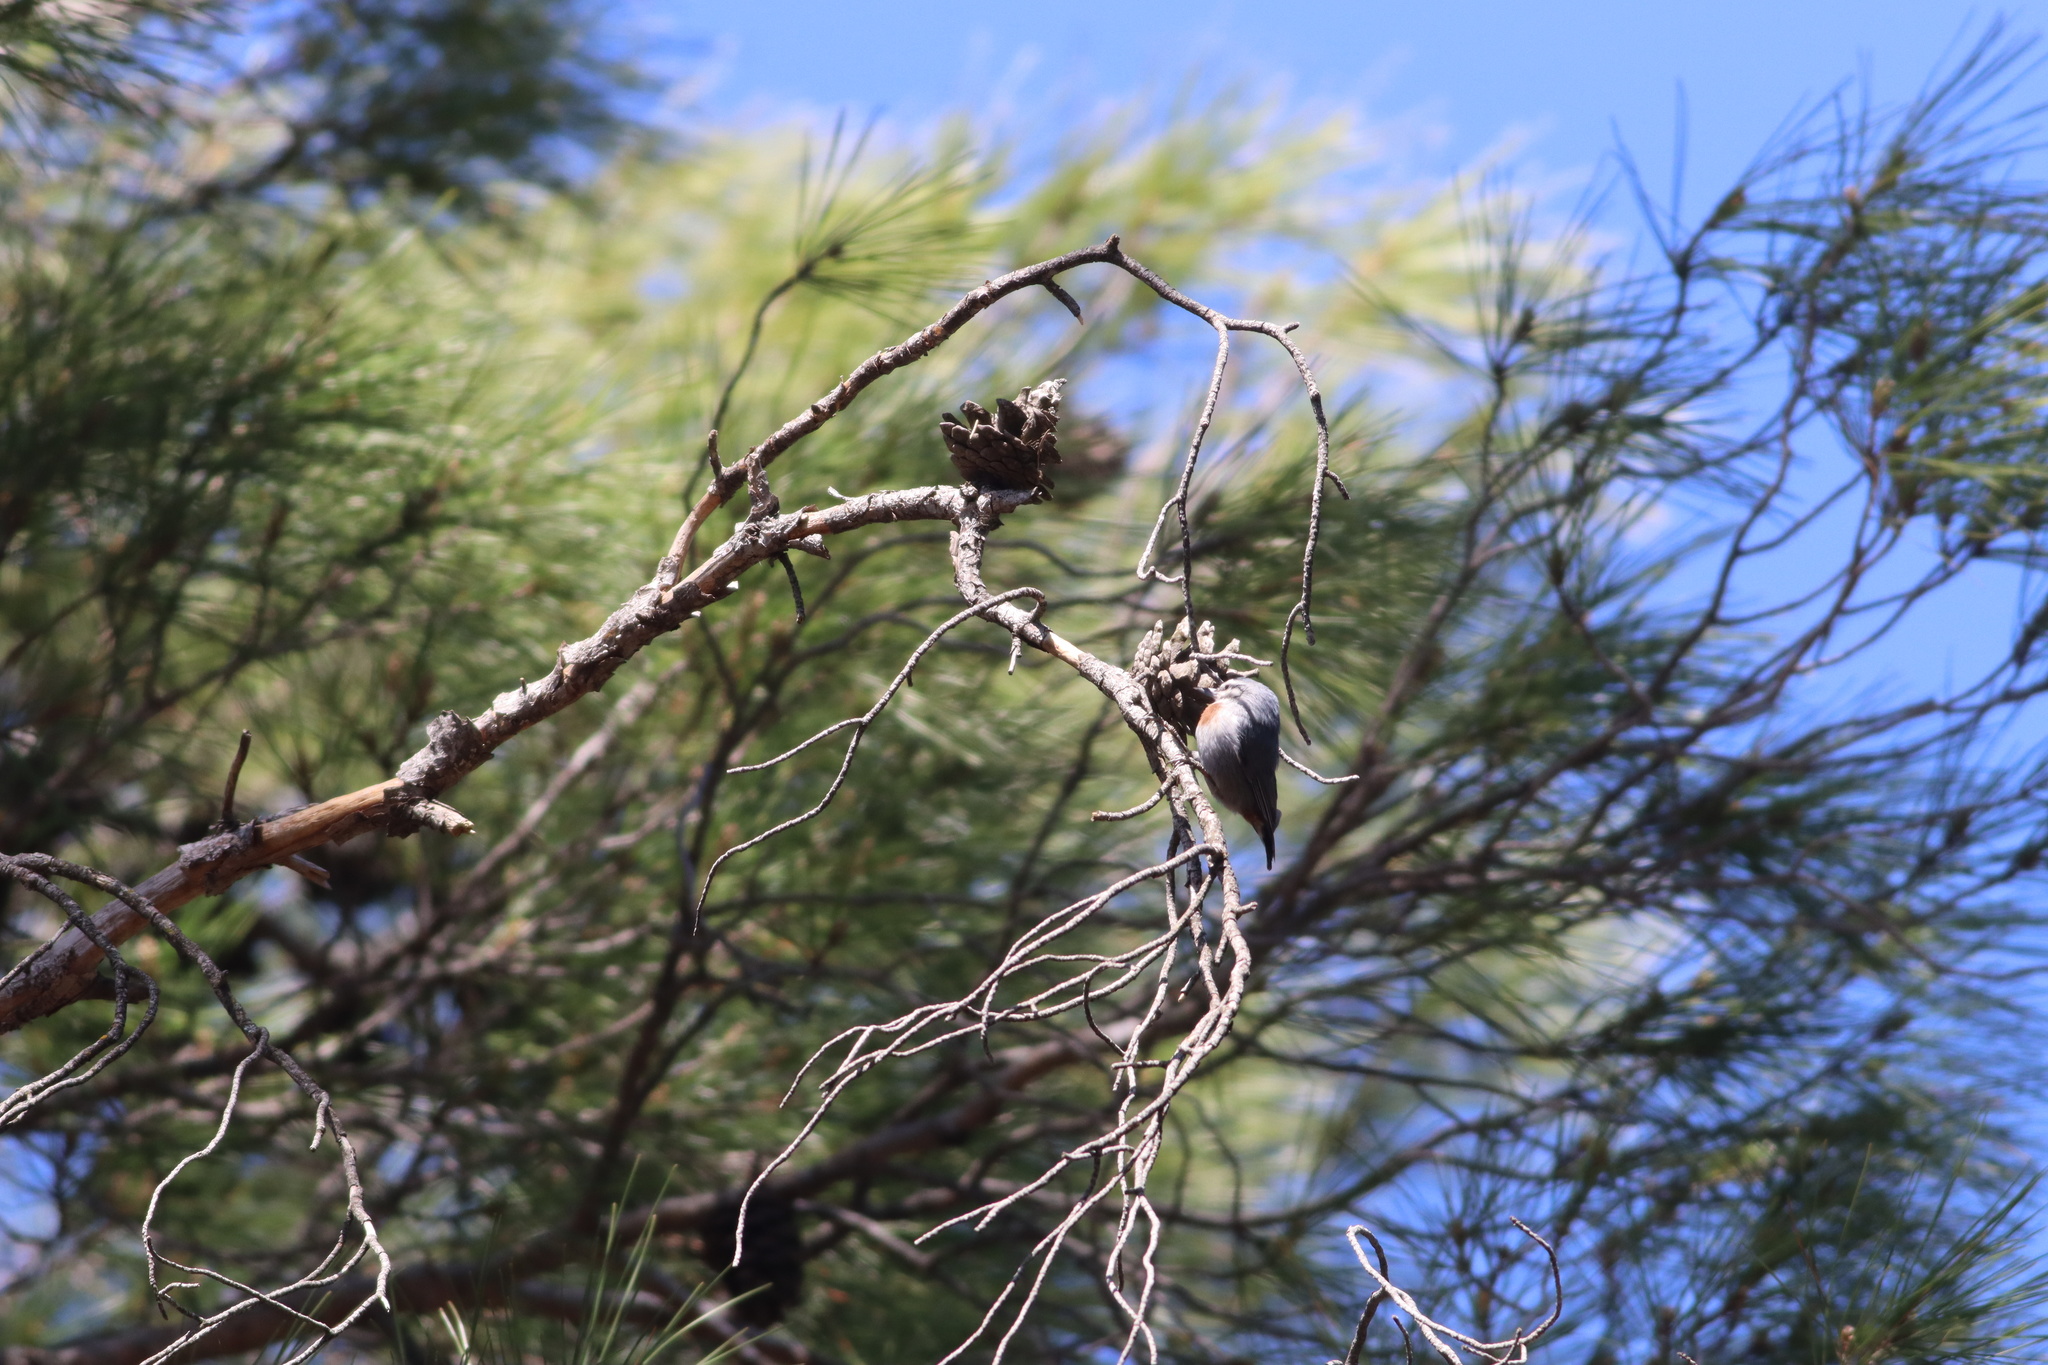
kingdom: Animalia
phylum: Chordata
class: Aves
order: Passeriformes
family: Sittidae
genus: Sitta
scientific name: Sitta krueperi
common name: Krüper's nuthatch
